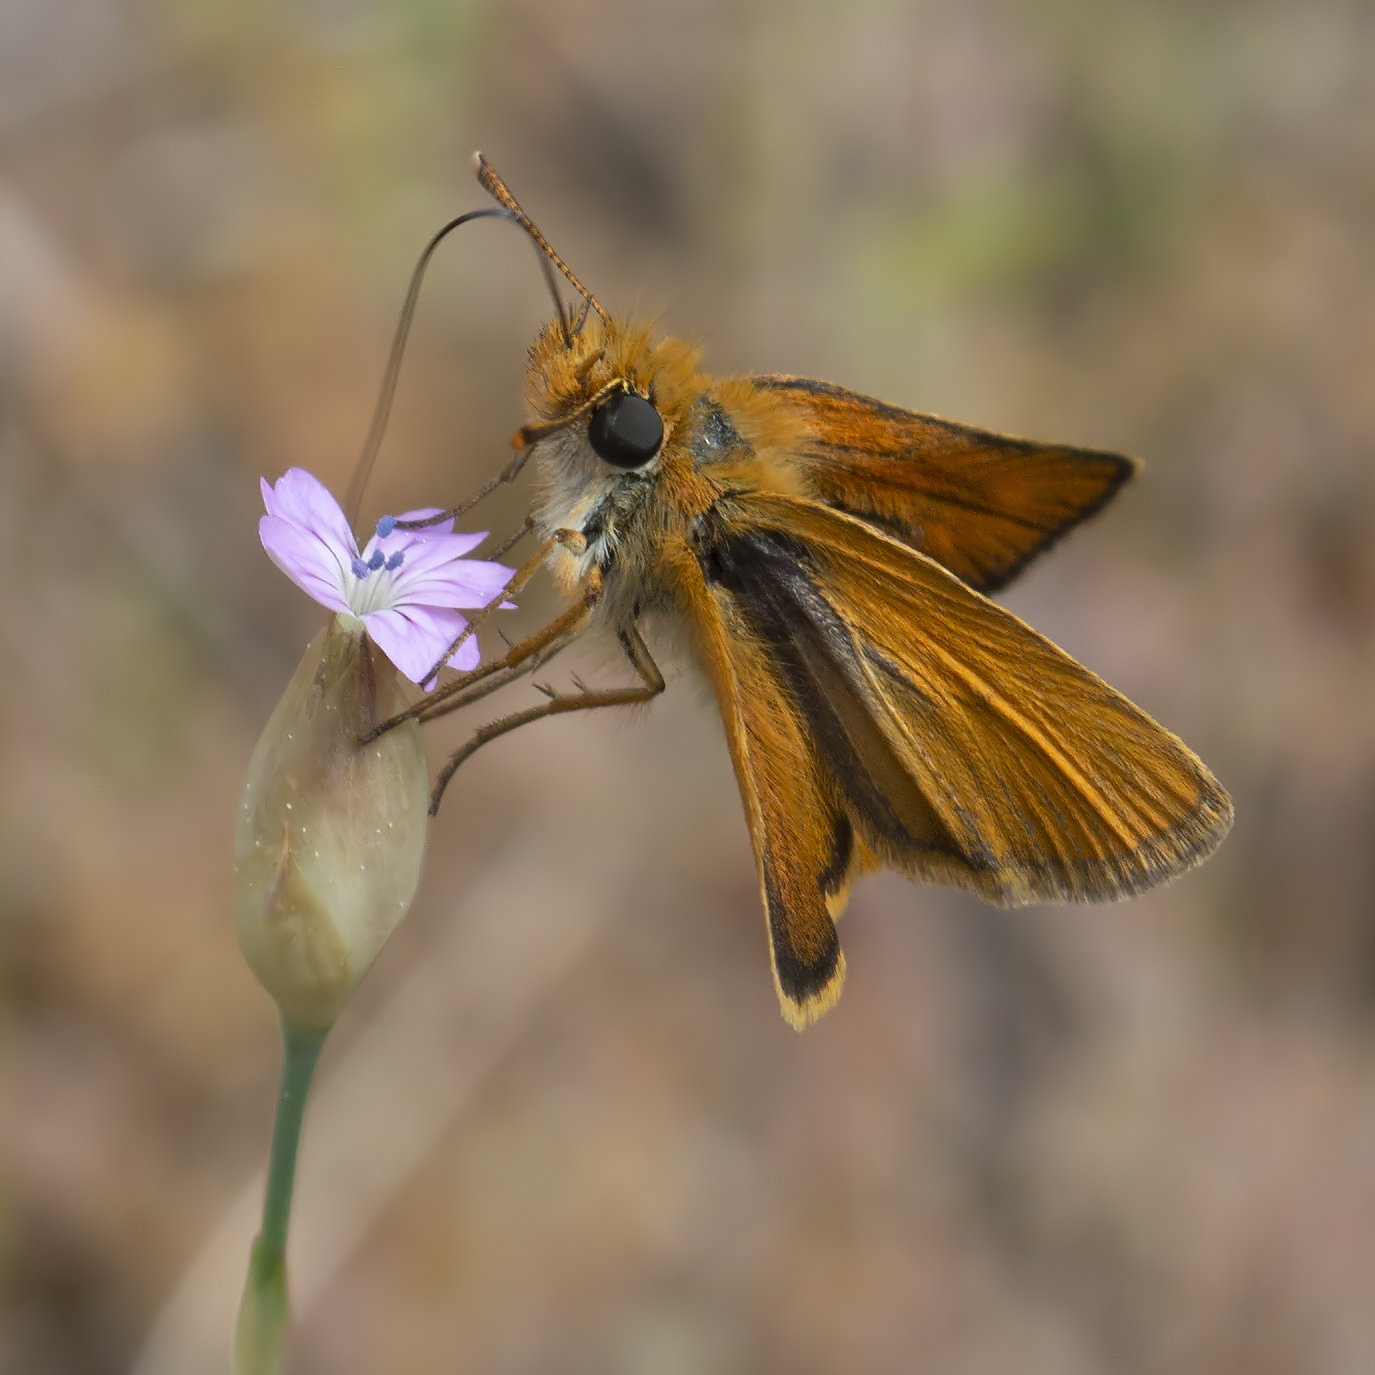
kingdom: Animalia
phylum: Arthropoda
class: Insecta
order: Lepidoptera
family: Hesperiidae
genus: Thymelicus
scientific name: Thymelicus acteon
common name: Lulworth skipper
